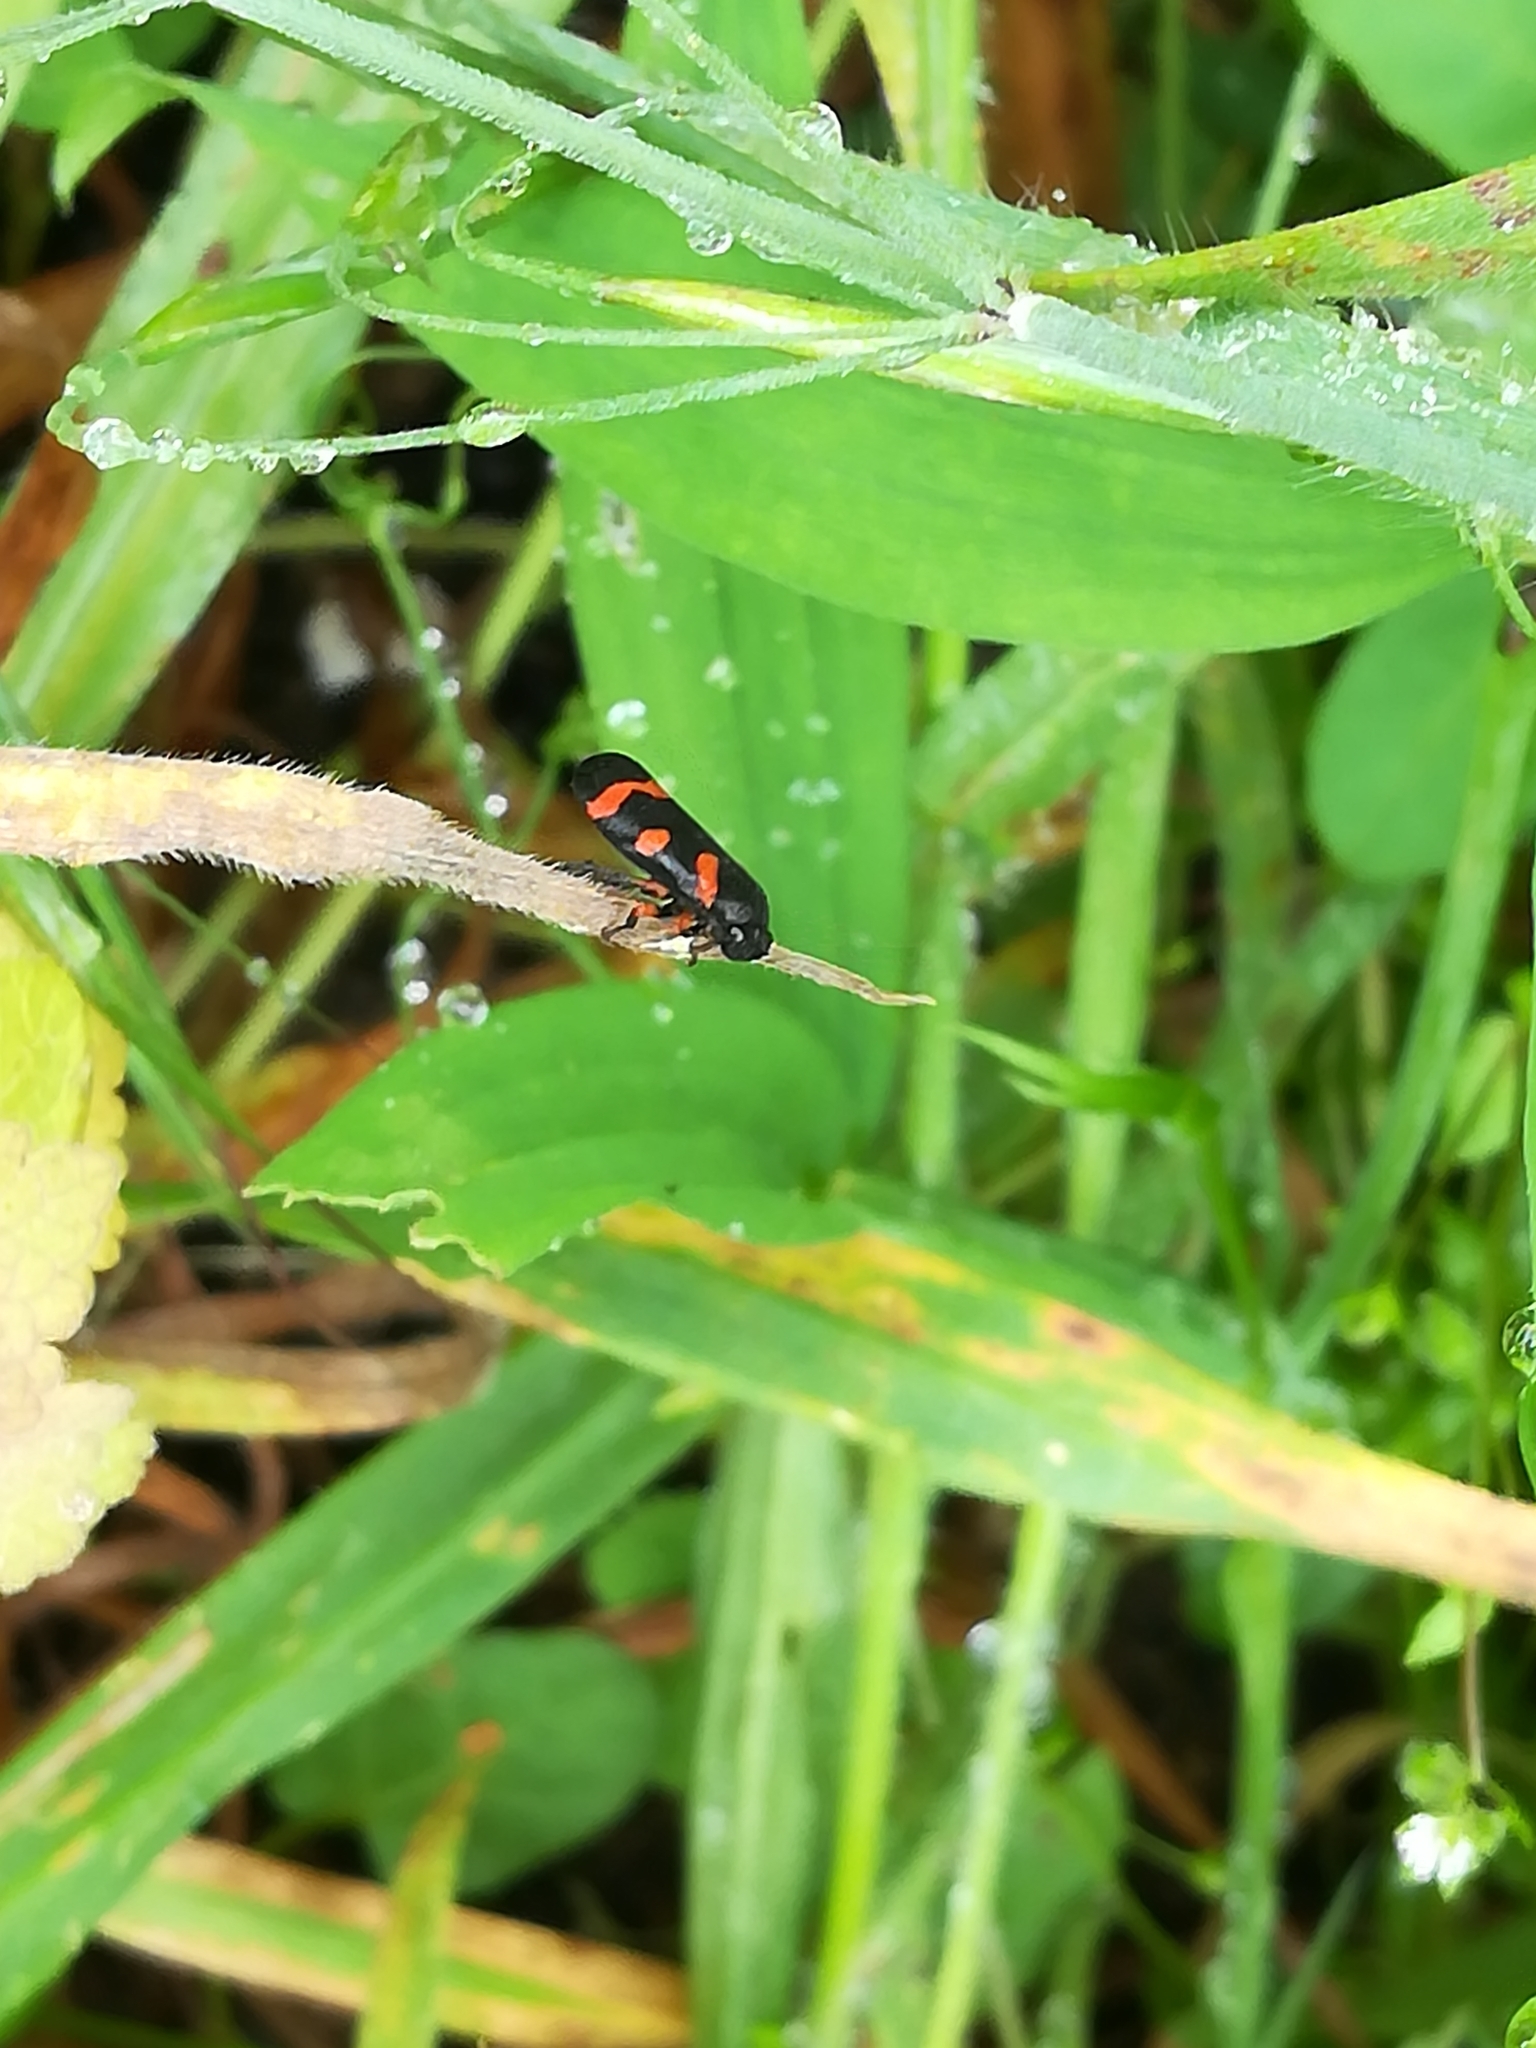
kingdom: Animalia
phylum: Arthropoda
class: Insecta
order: Hemiptera
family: Cercopidae
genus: Cercopis
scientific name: Cercopis intermedia
